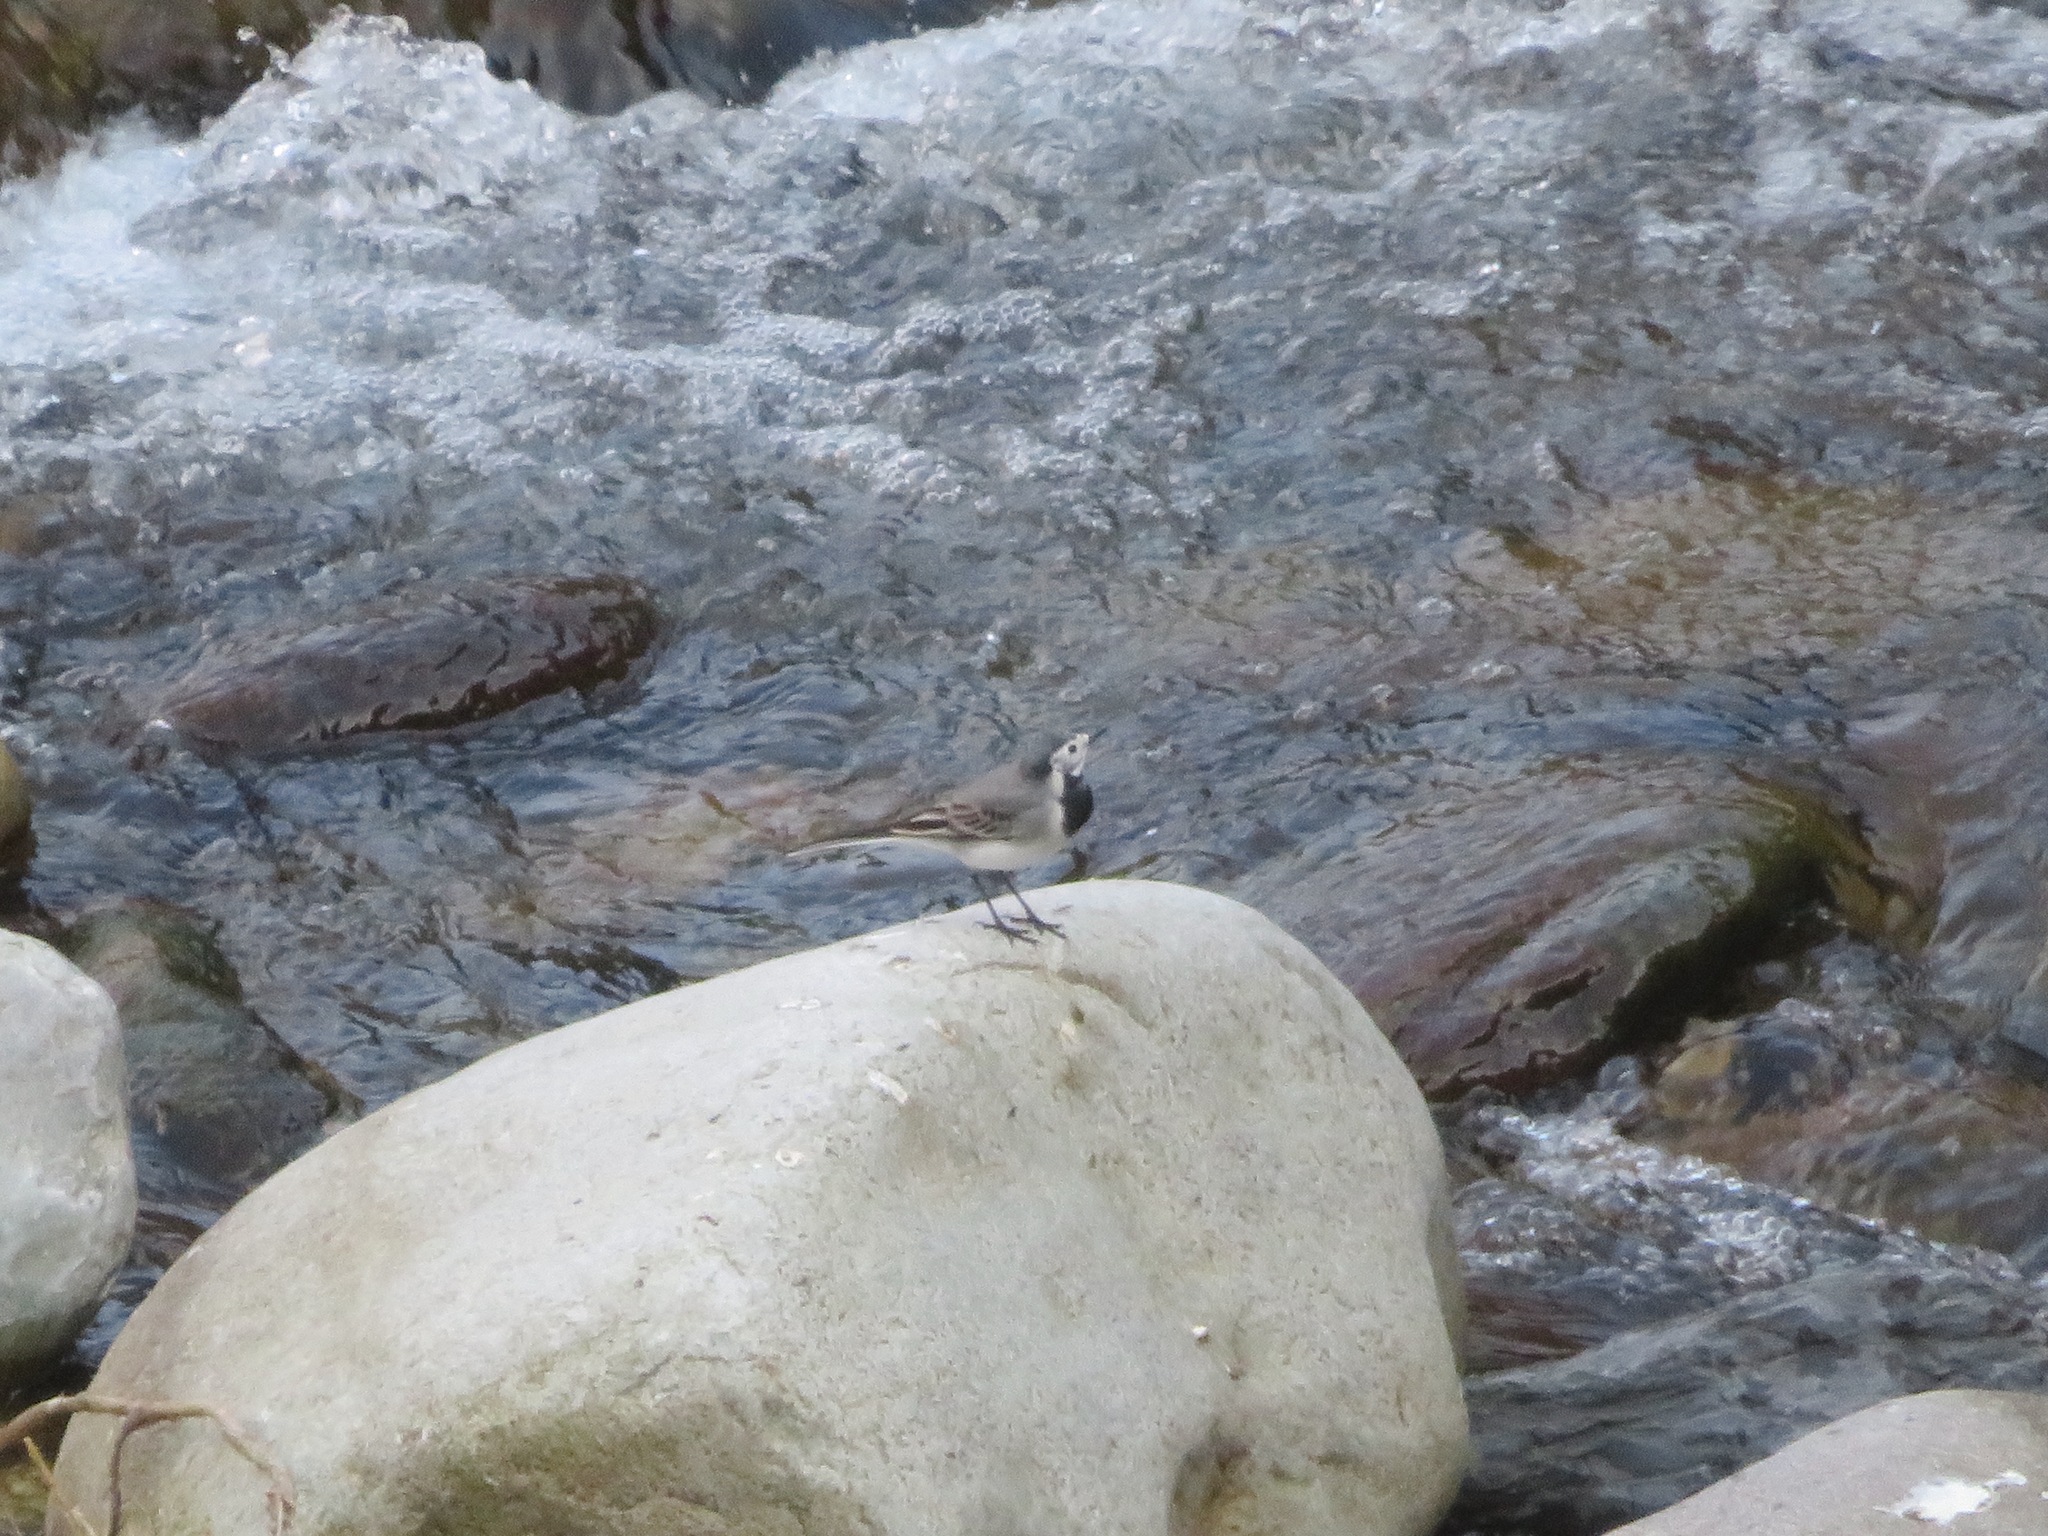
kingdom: Animalia
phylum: Chordata
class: Aves
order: Passeriformes
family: Motacillidae
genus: Motacilla
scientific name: Motacilla alba
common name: White wagtail
